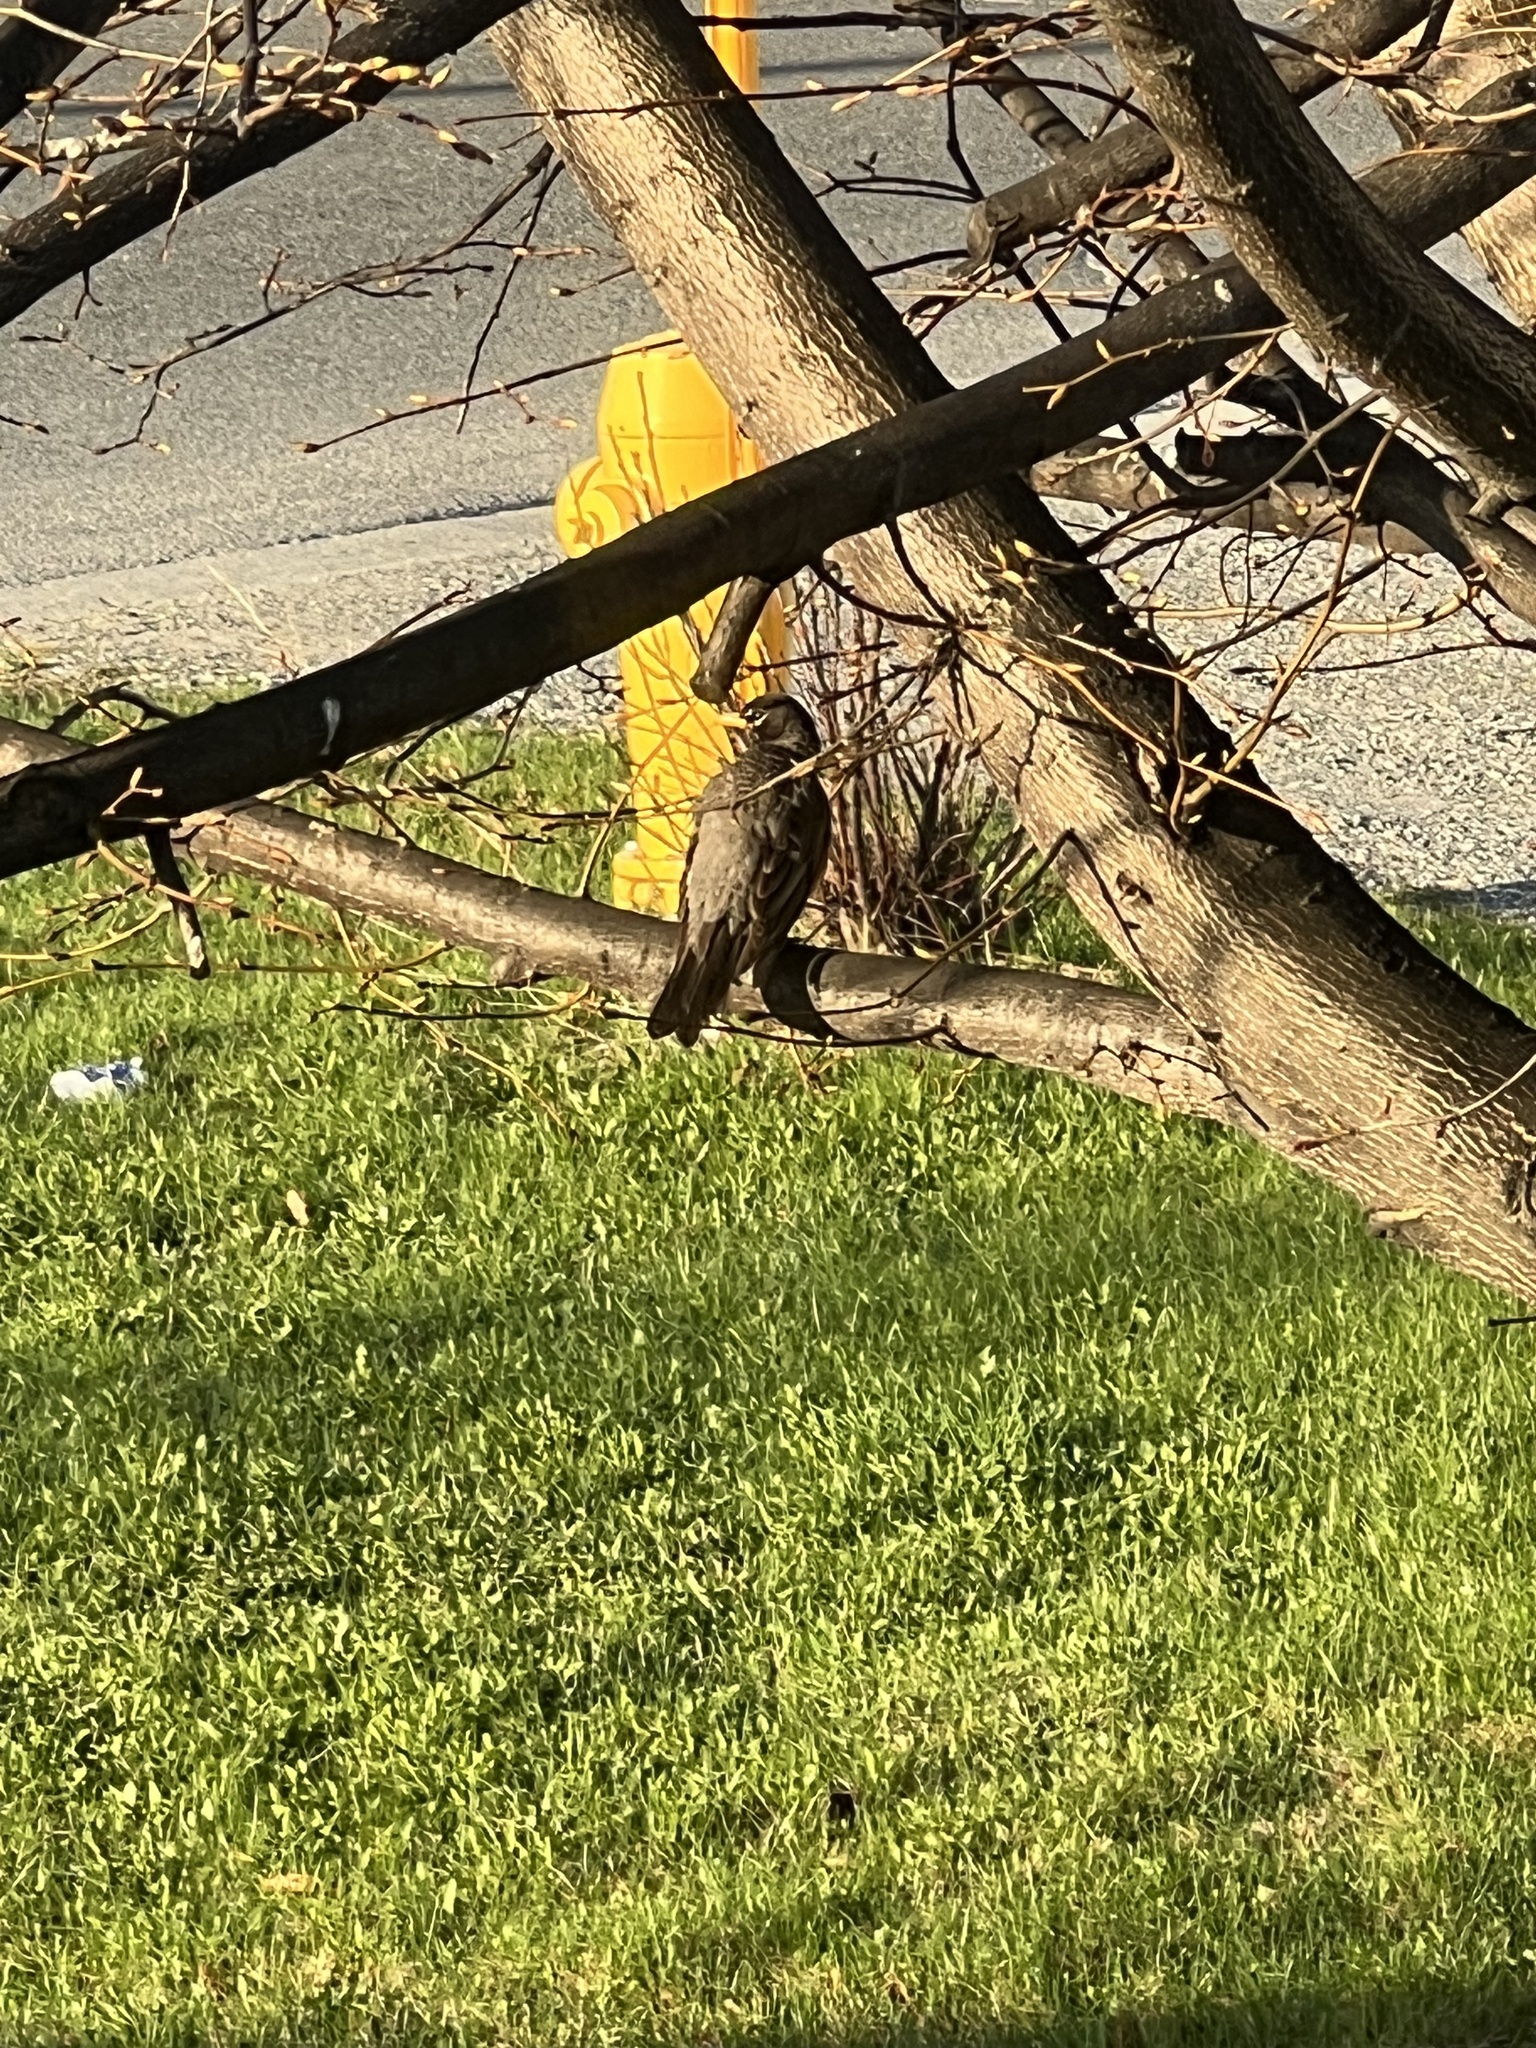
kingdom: Animalia
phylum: Chordata
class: Aves
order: Passeriformes
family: Sturnidae
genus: Sturnus
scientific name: Sturnus vulgaris
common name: Common starling
